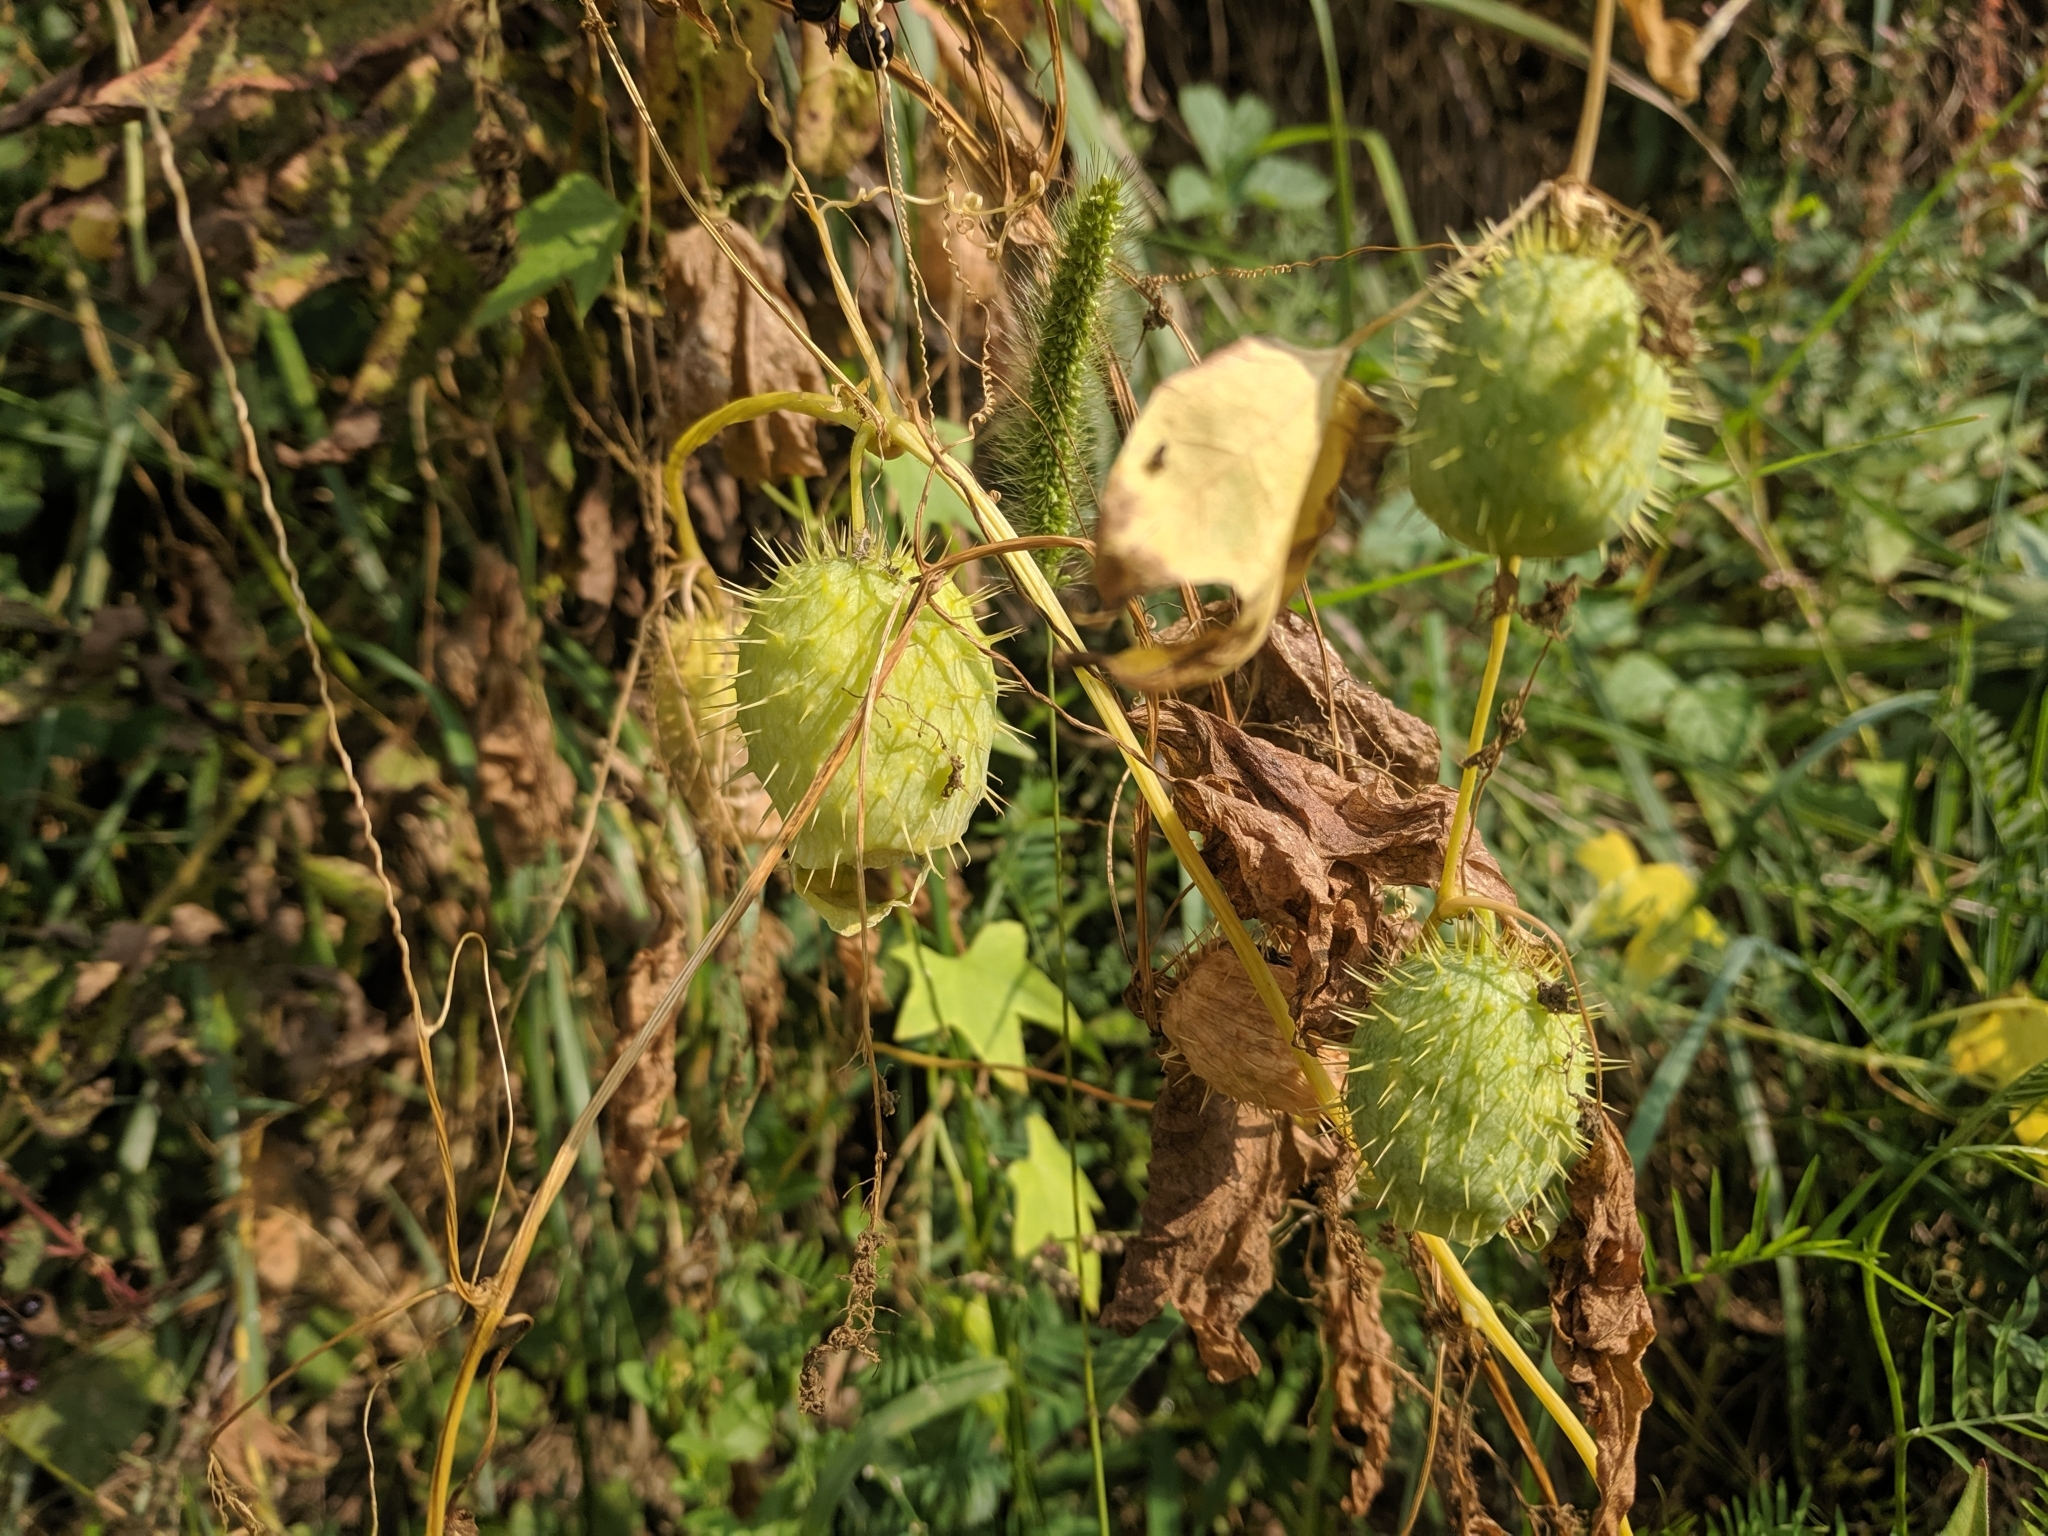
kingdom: Plantae
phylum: Tracheophyta
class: Magnoliopsida
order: Cucurbitales
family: Cucurbitaceae
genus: Echinocystis
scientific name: Echinocystis lobata
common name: Wild cucumber
